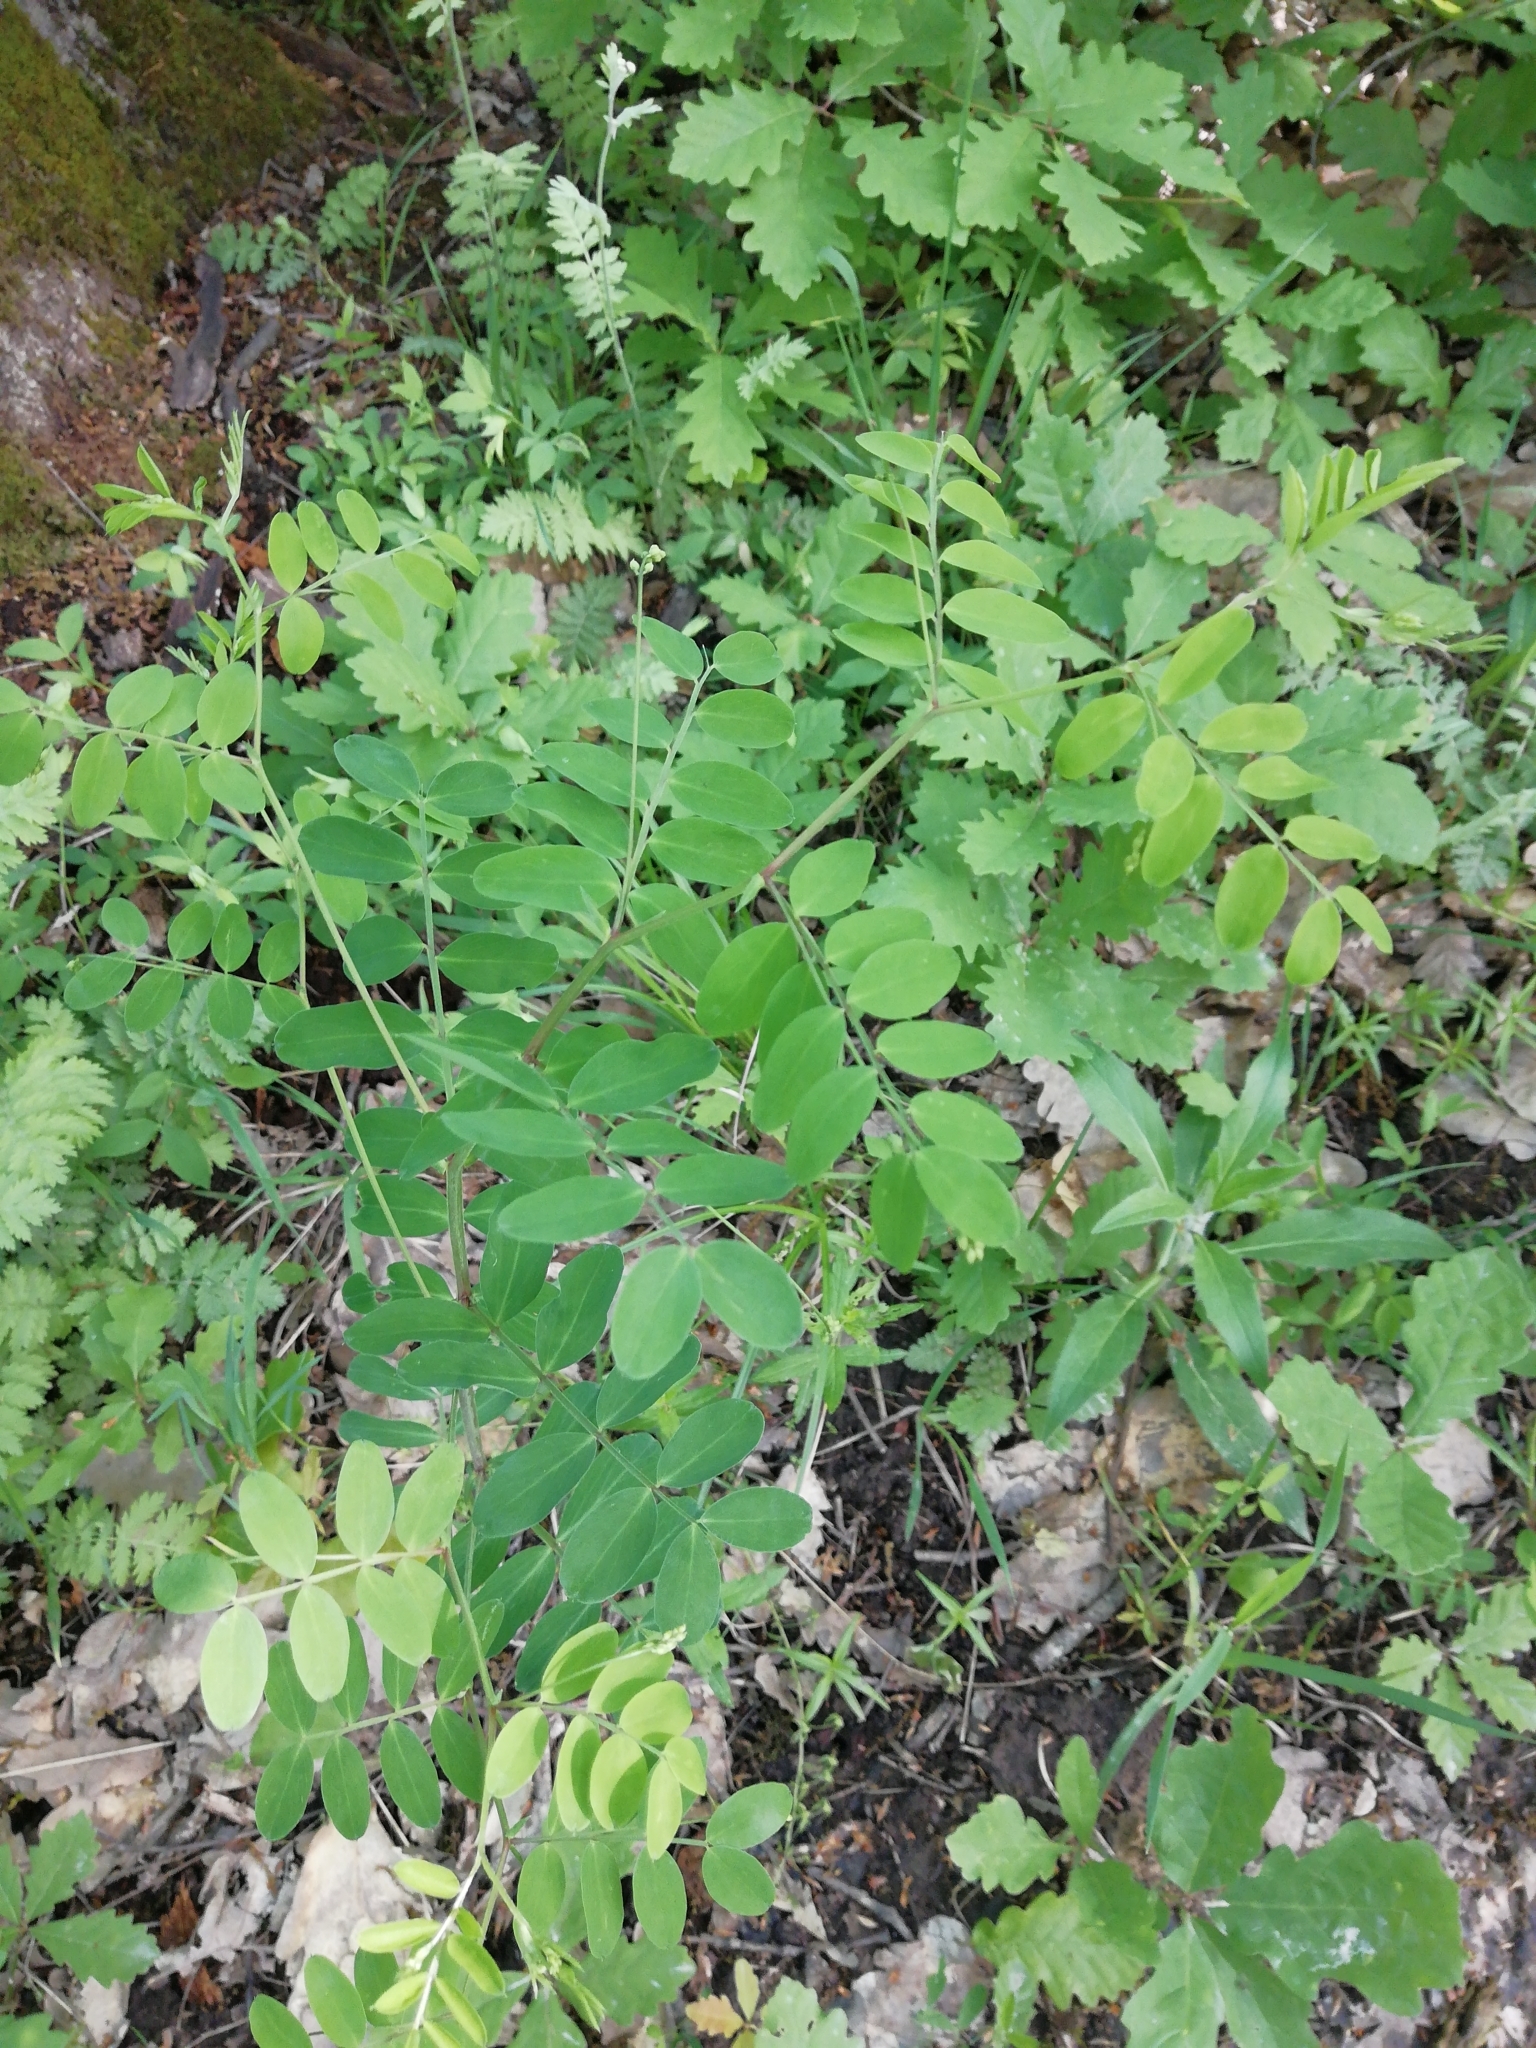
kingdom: Plantae
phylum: Tracheophyta
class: Magnoliopsida
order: Fabales
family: Fabaceae
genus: Lathyrus
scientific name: Lathyrus niger
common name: Black pea
